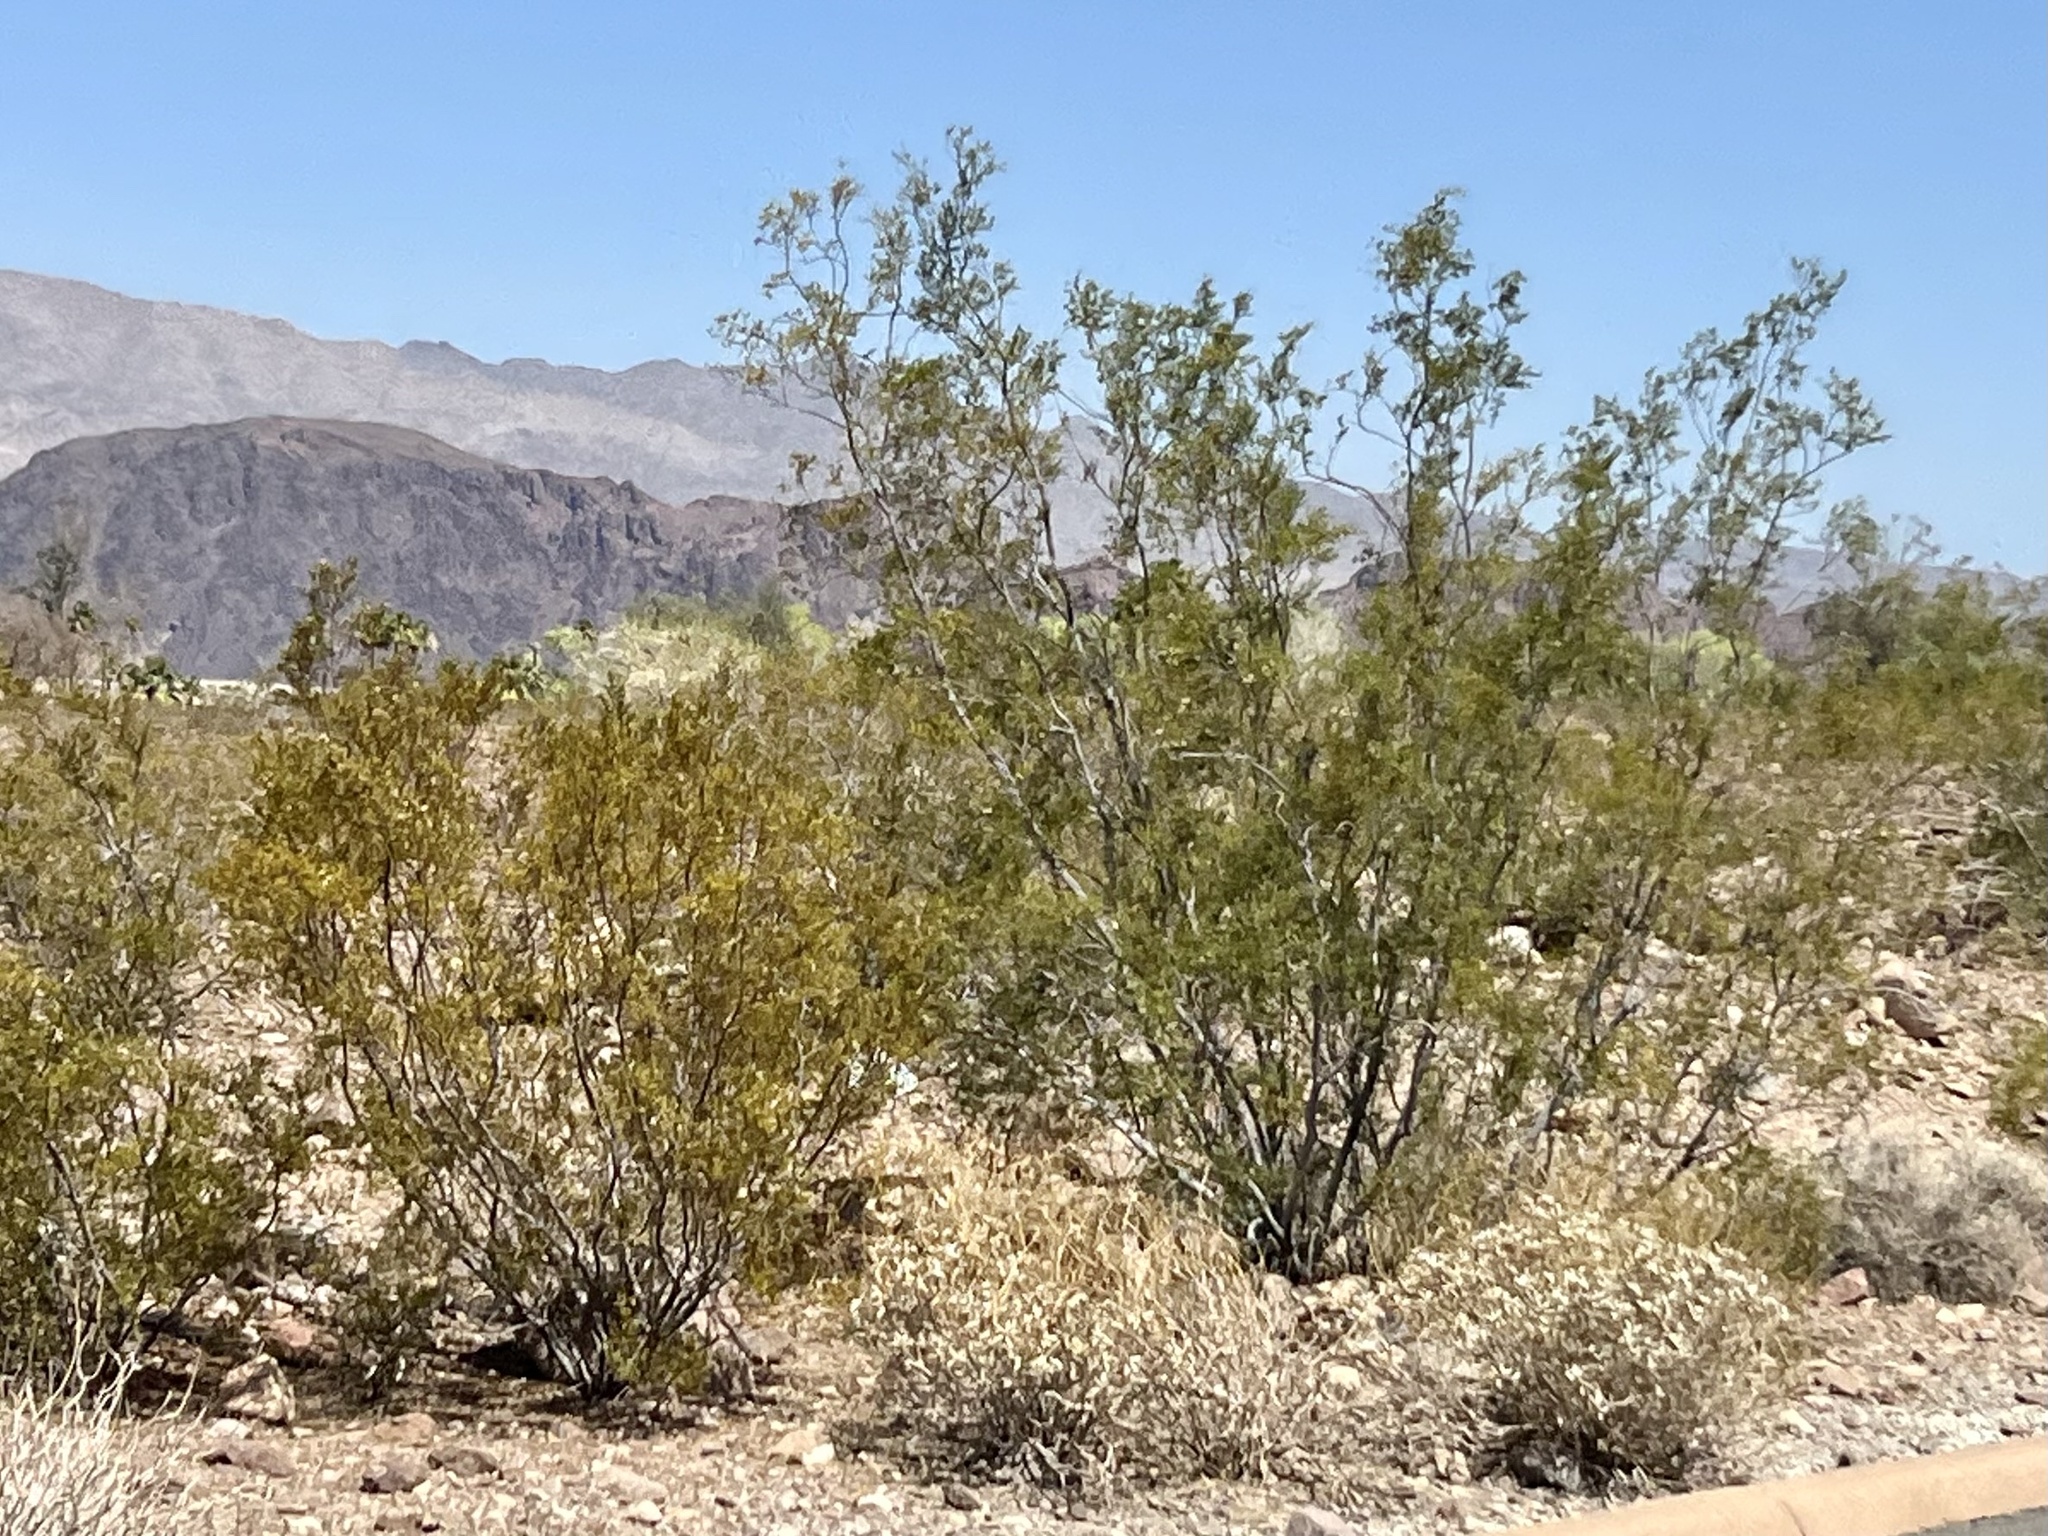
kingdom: Plantae
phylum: Tracheophyta
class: Magnoliopsida
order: Zygophyllales
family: Zygophyllaceae
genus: Larrea
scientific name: Larrea tridentata
